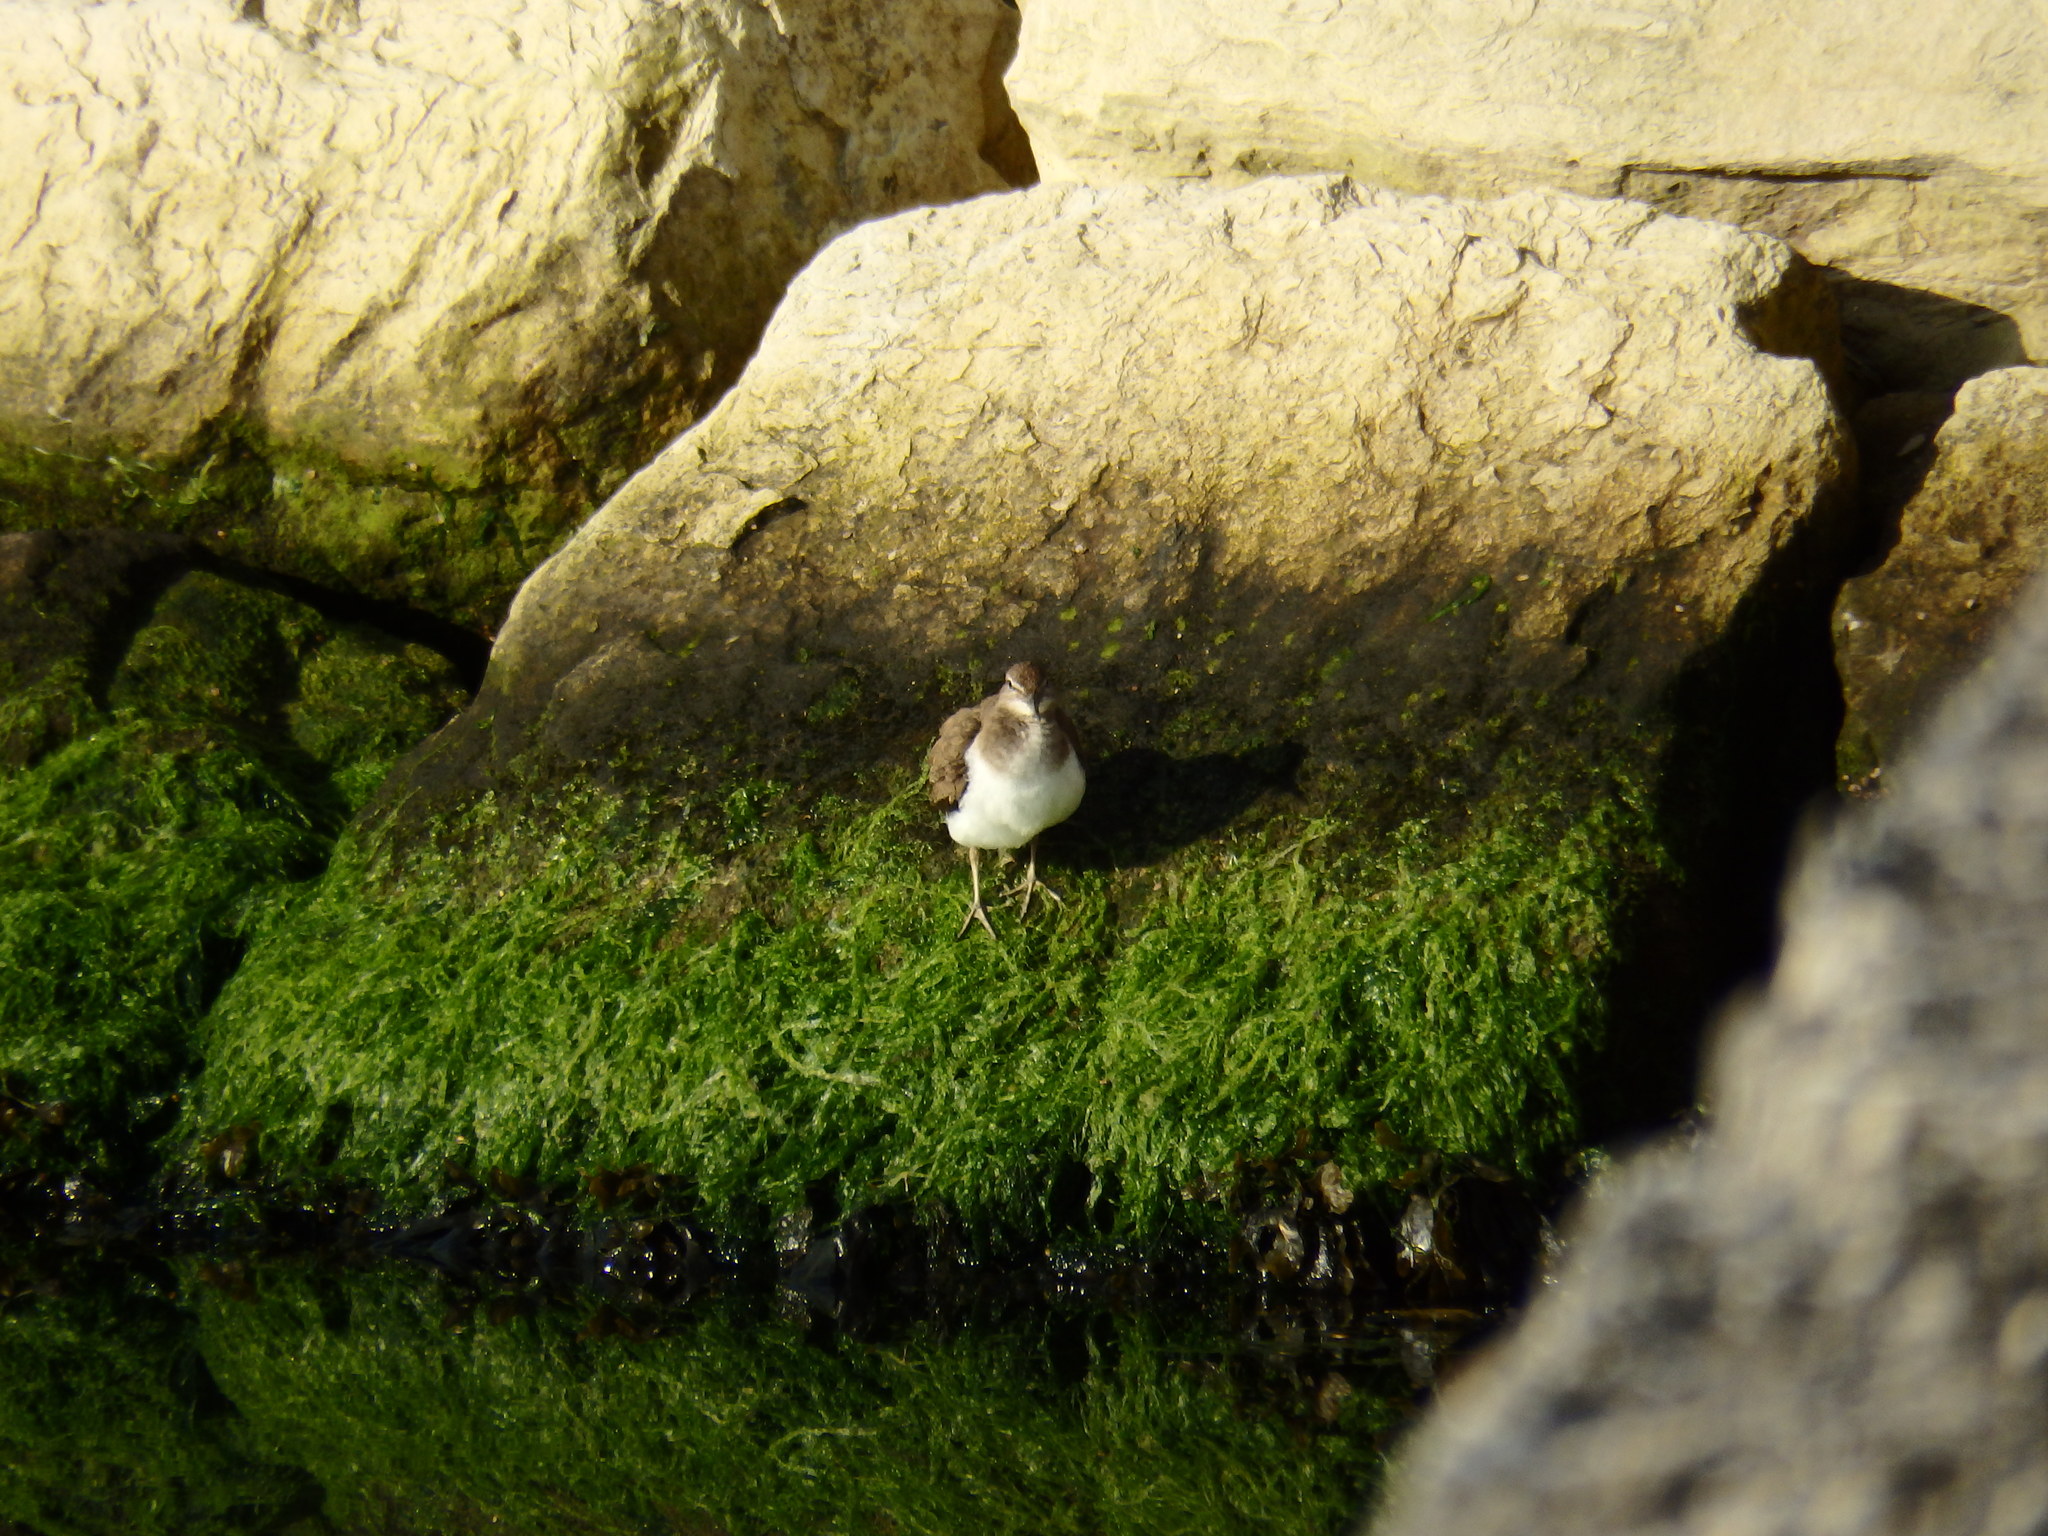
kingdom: Animalia
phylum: Chordata
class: Aves
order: Charadriiformes
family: Scolopacidae
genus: Actitis
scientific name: Actitis hypoleucos
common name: Common sandpiper
